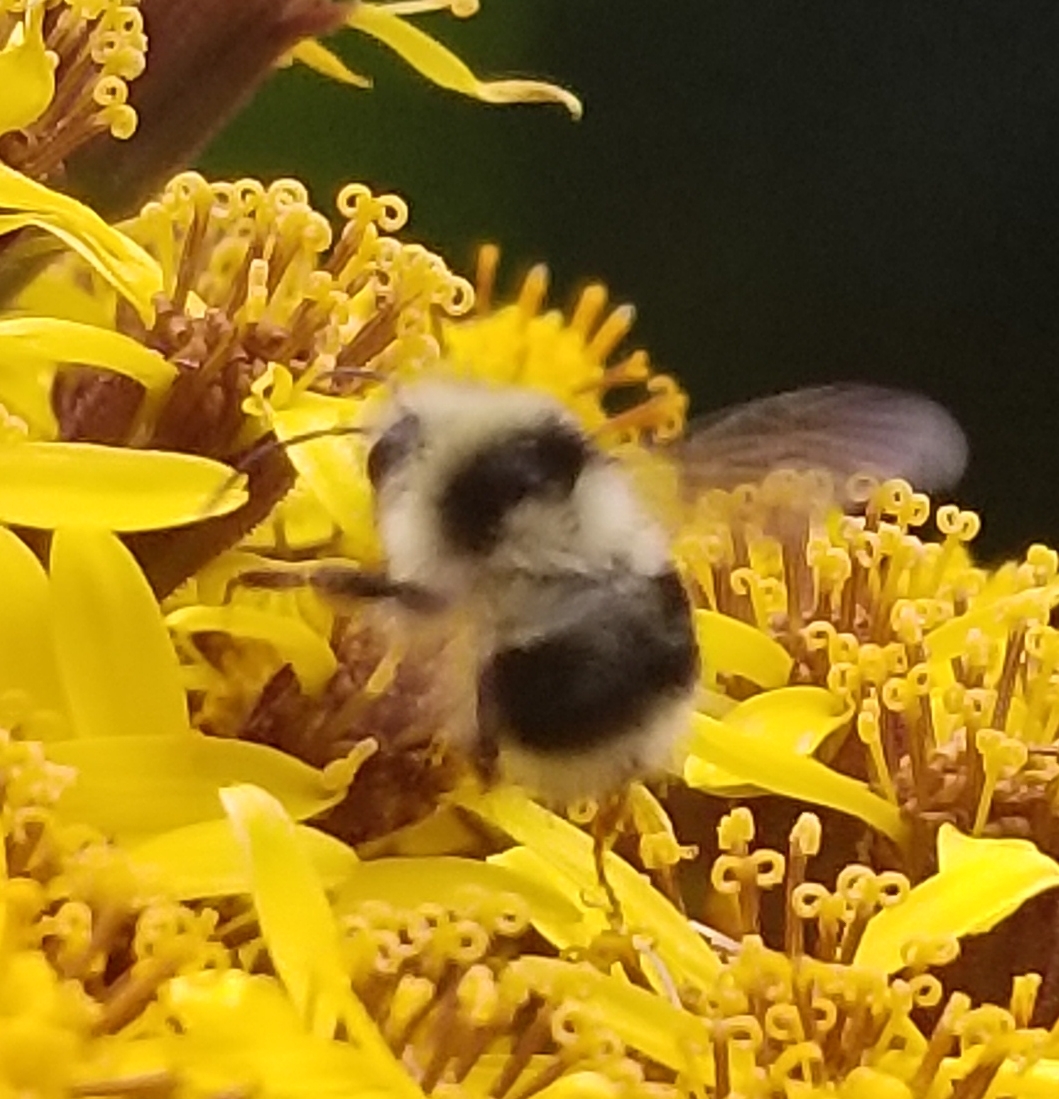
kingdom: Animalia
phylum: Arthropoda
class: Insecta
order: Hymenoptera
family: Apidae
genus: Bombus
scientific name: Bombus melanopygus
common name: Black tail bumble bee
